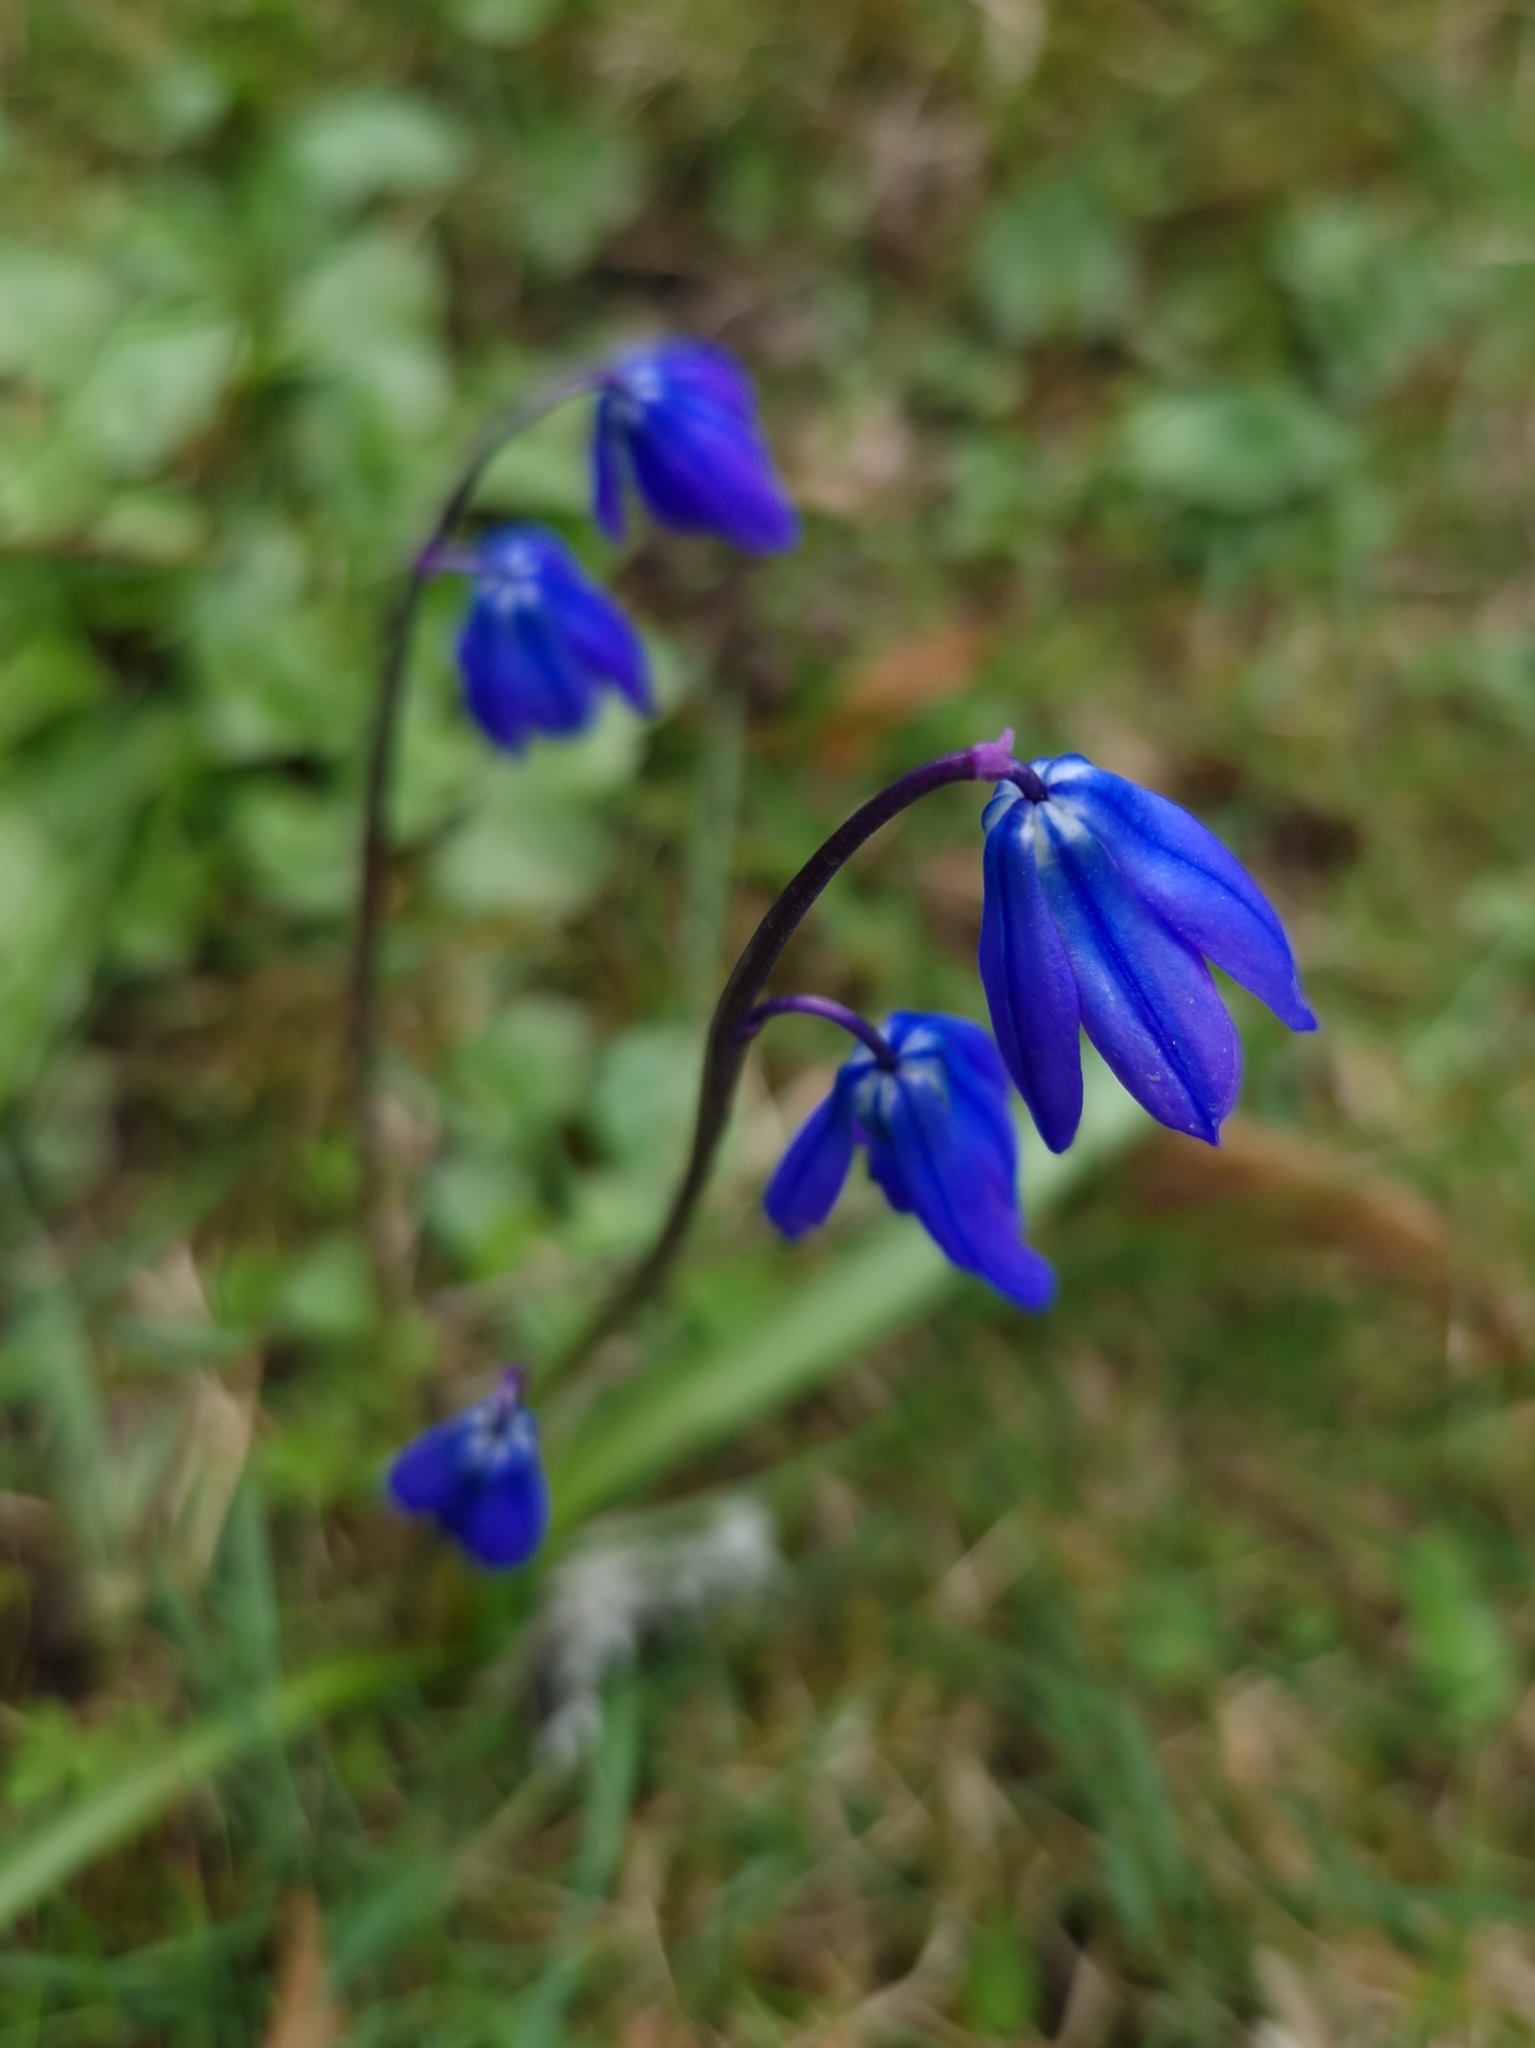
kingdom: Plantae
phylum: Tracheophyta
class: Liliopsida
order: Asparagales
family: Asparagaceae
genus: Scilla
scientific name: Scilla siberica
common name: Siberian squill
